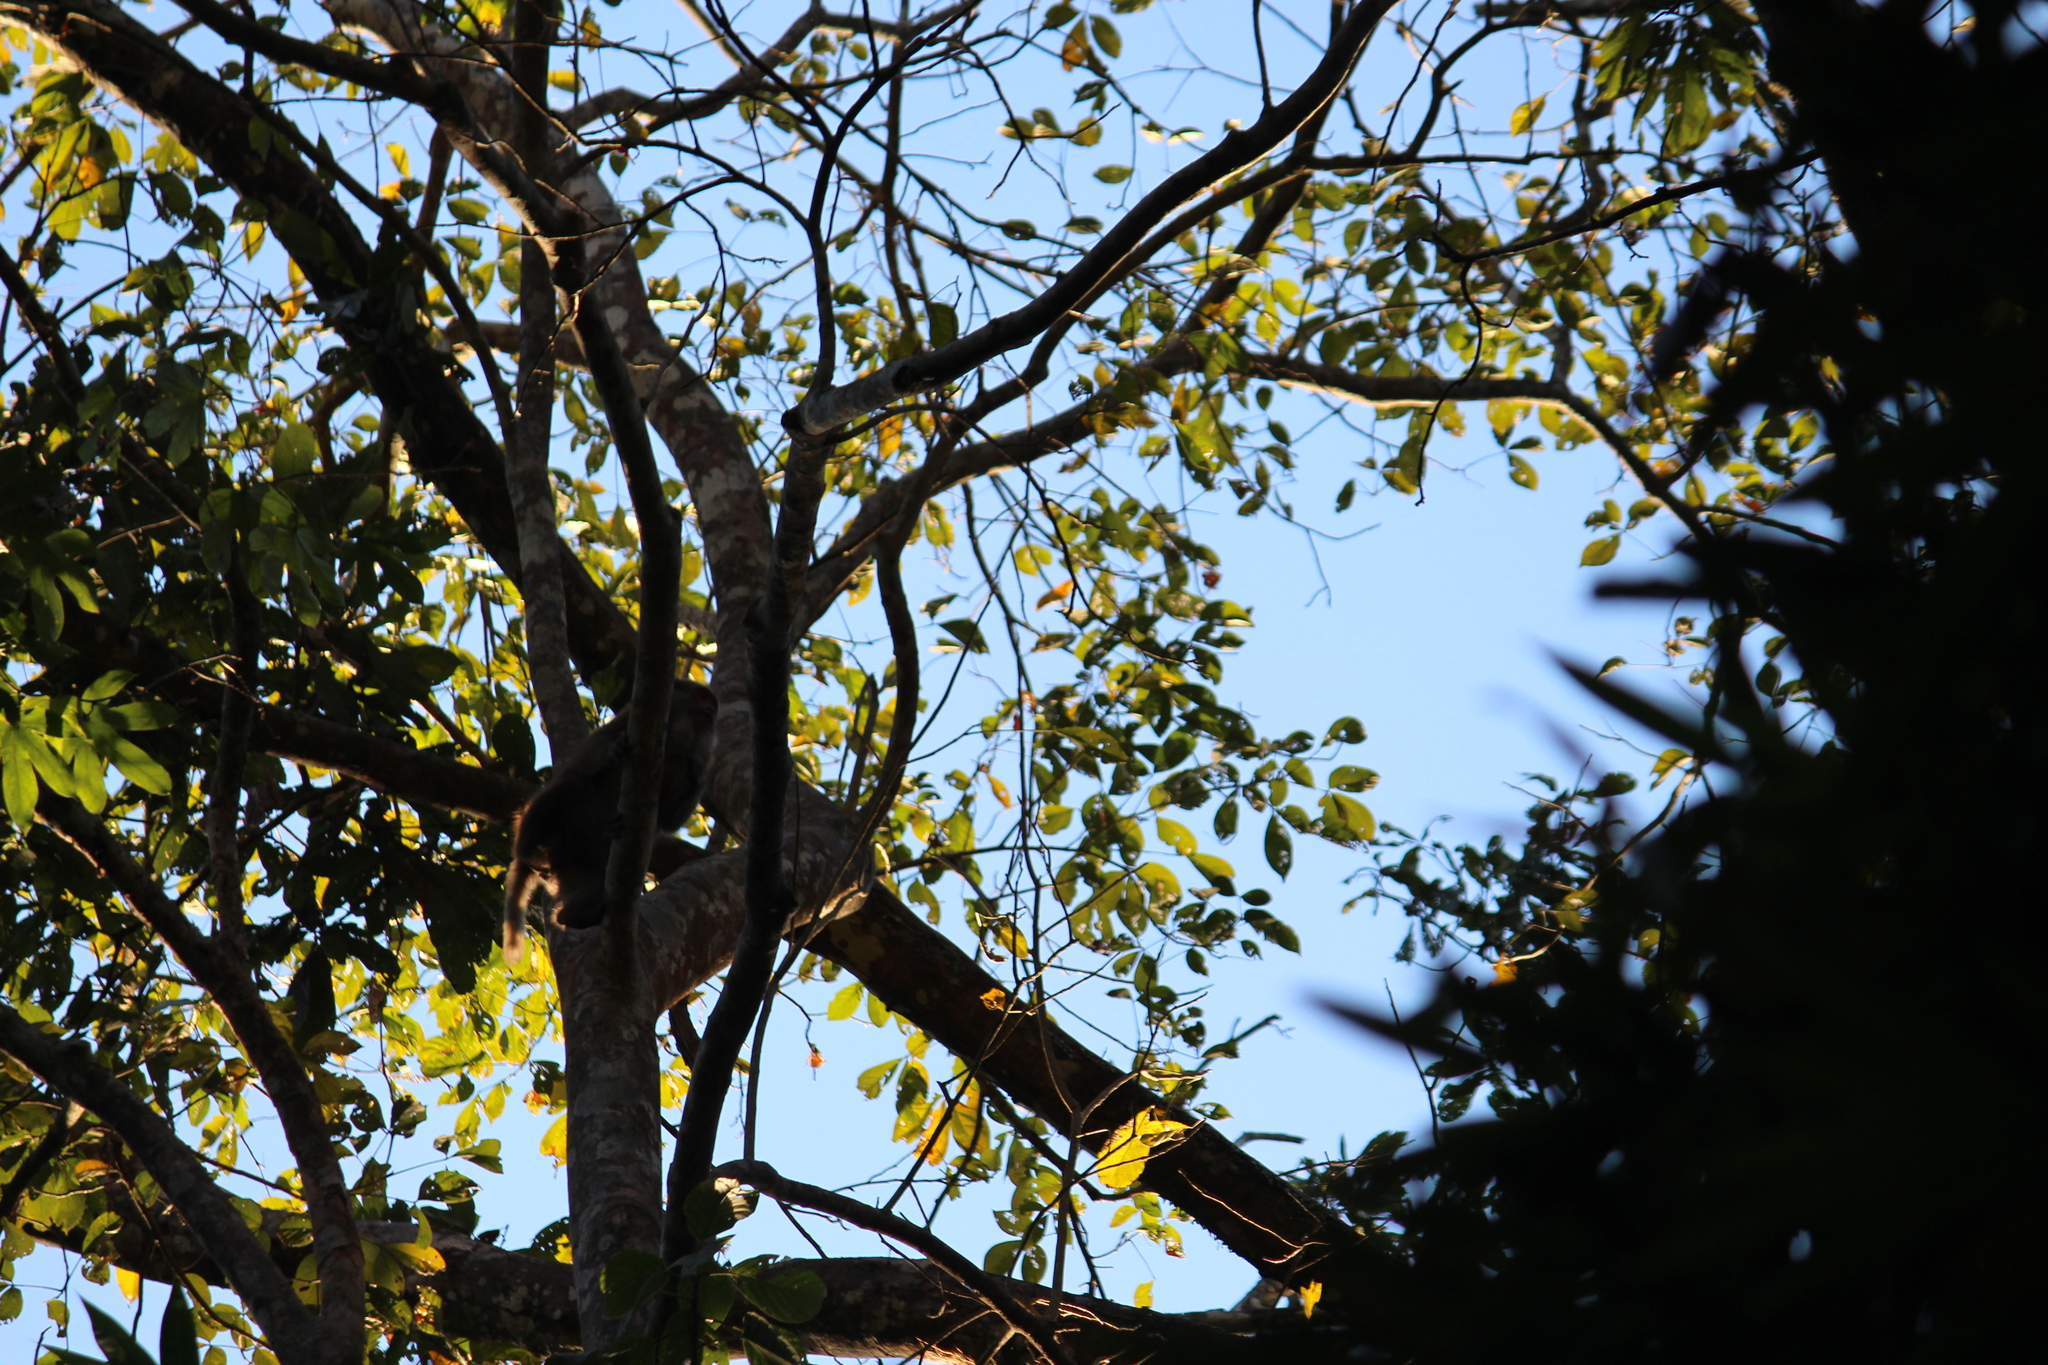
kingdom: Animalia
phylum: Chordata
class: Mammalia
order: Primates
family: Cercopithecidae
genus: Macaca
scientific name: Macaca assamensis
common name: Assam macaque
